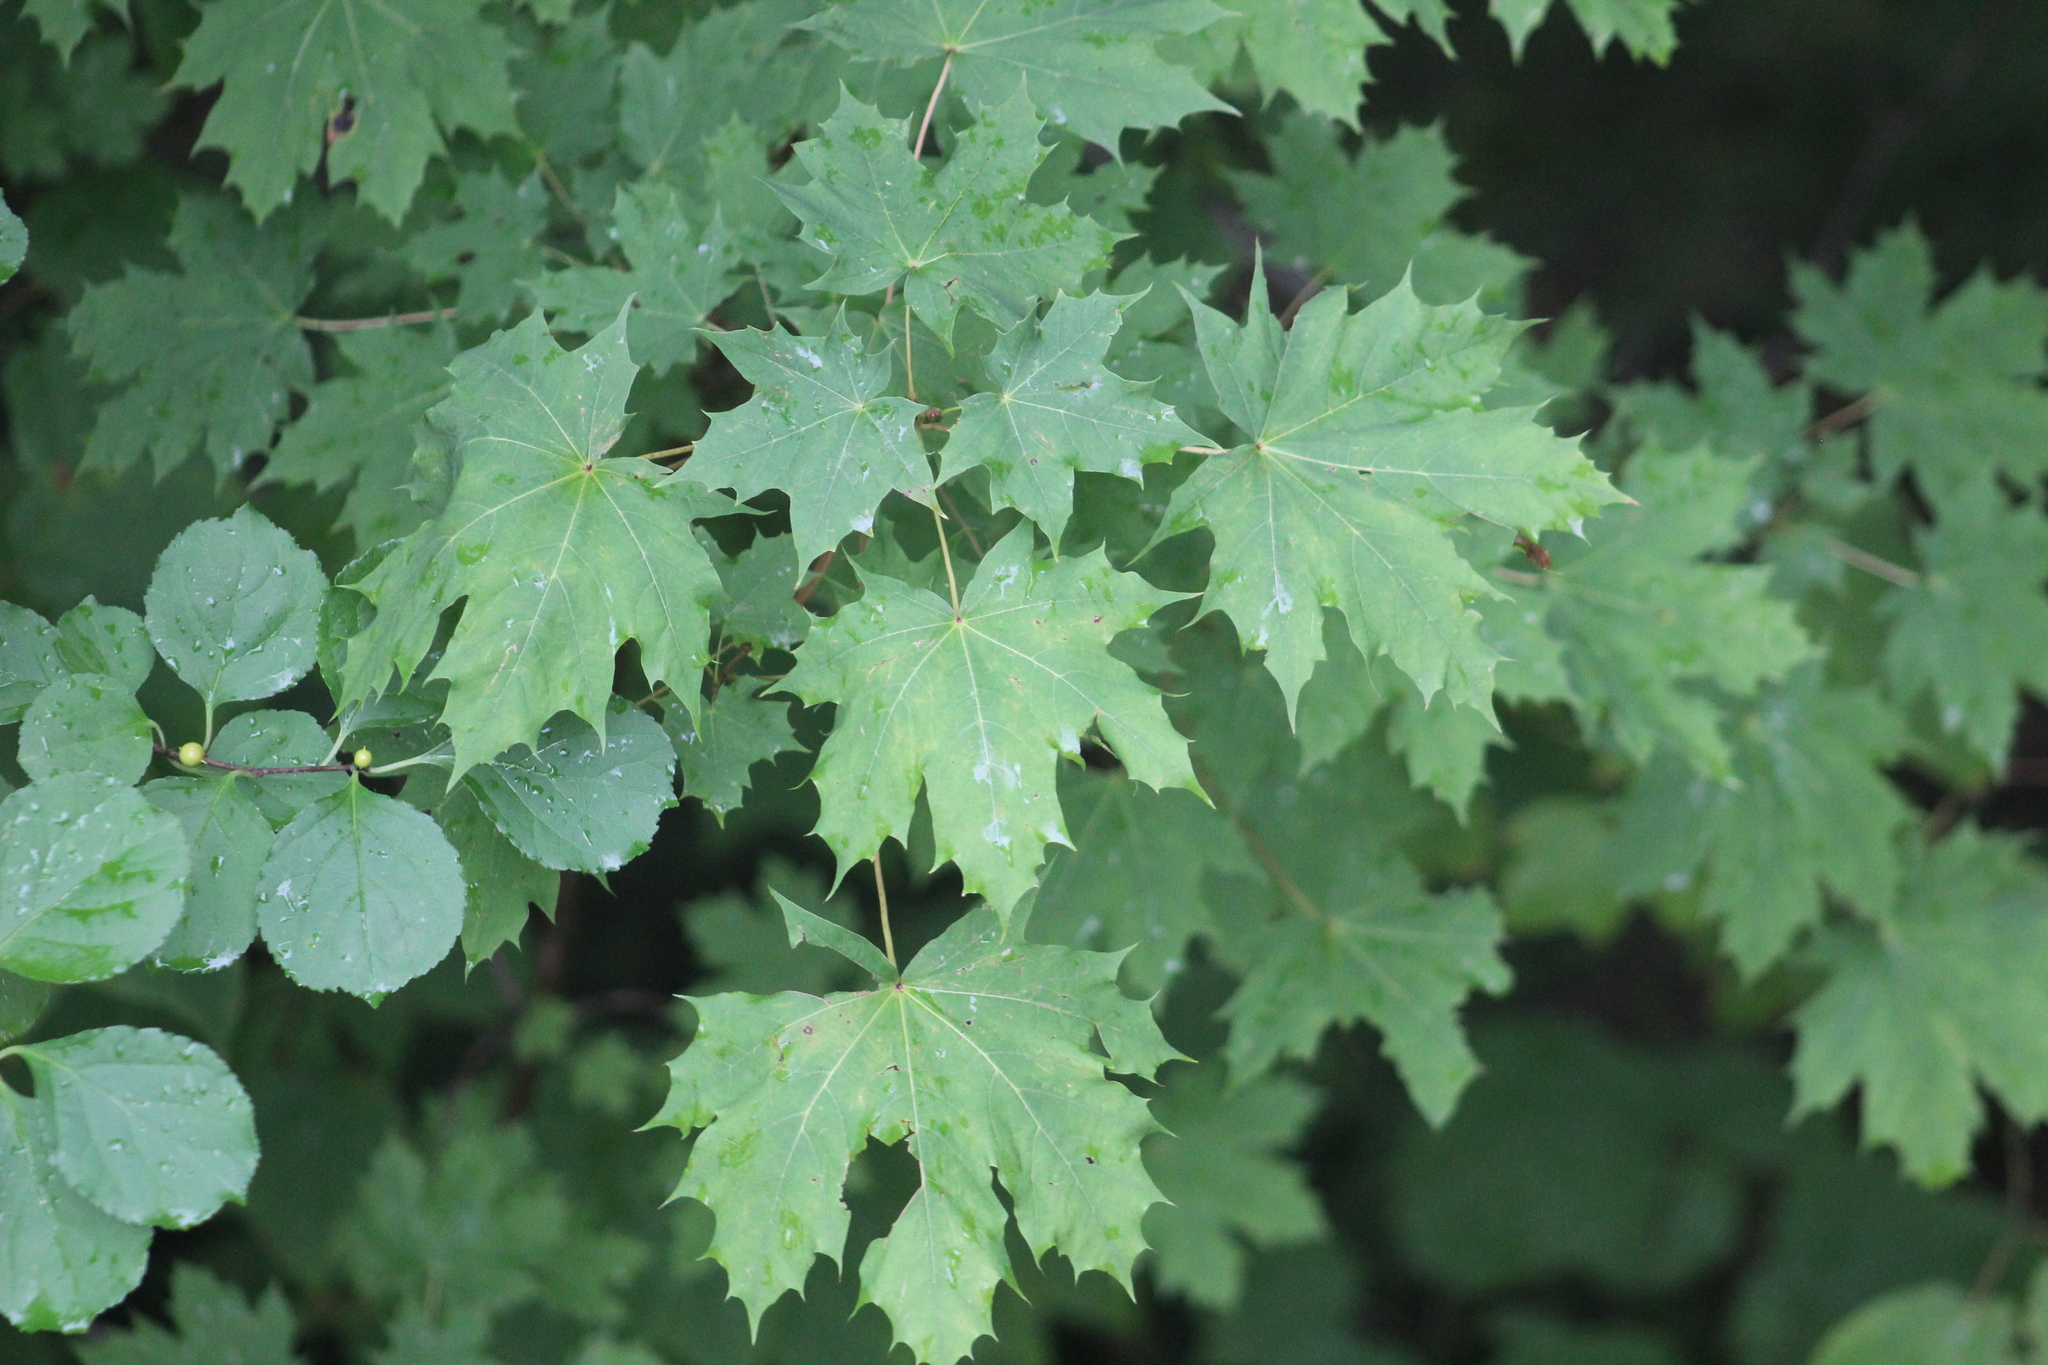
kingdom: Plantae
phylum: Tracheophyta
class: Magnoliopsida
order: Sapindales
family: Sapindaceae
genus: Acer
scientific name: Acer platanoides
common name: Norway maple
